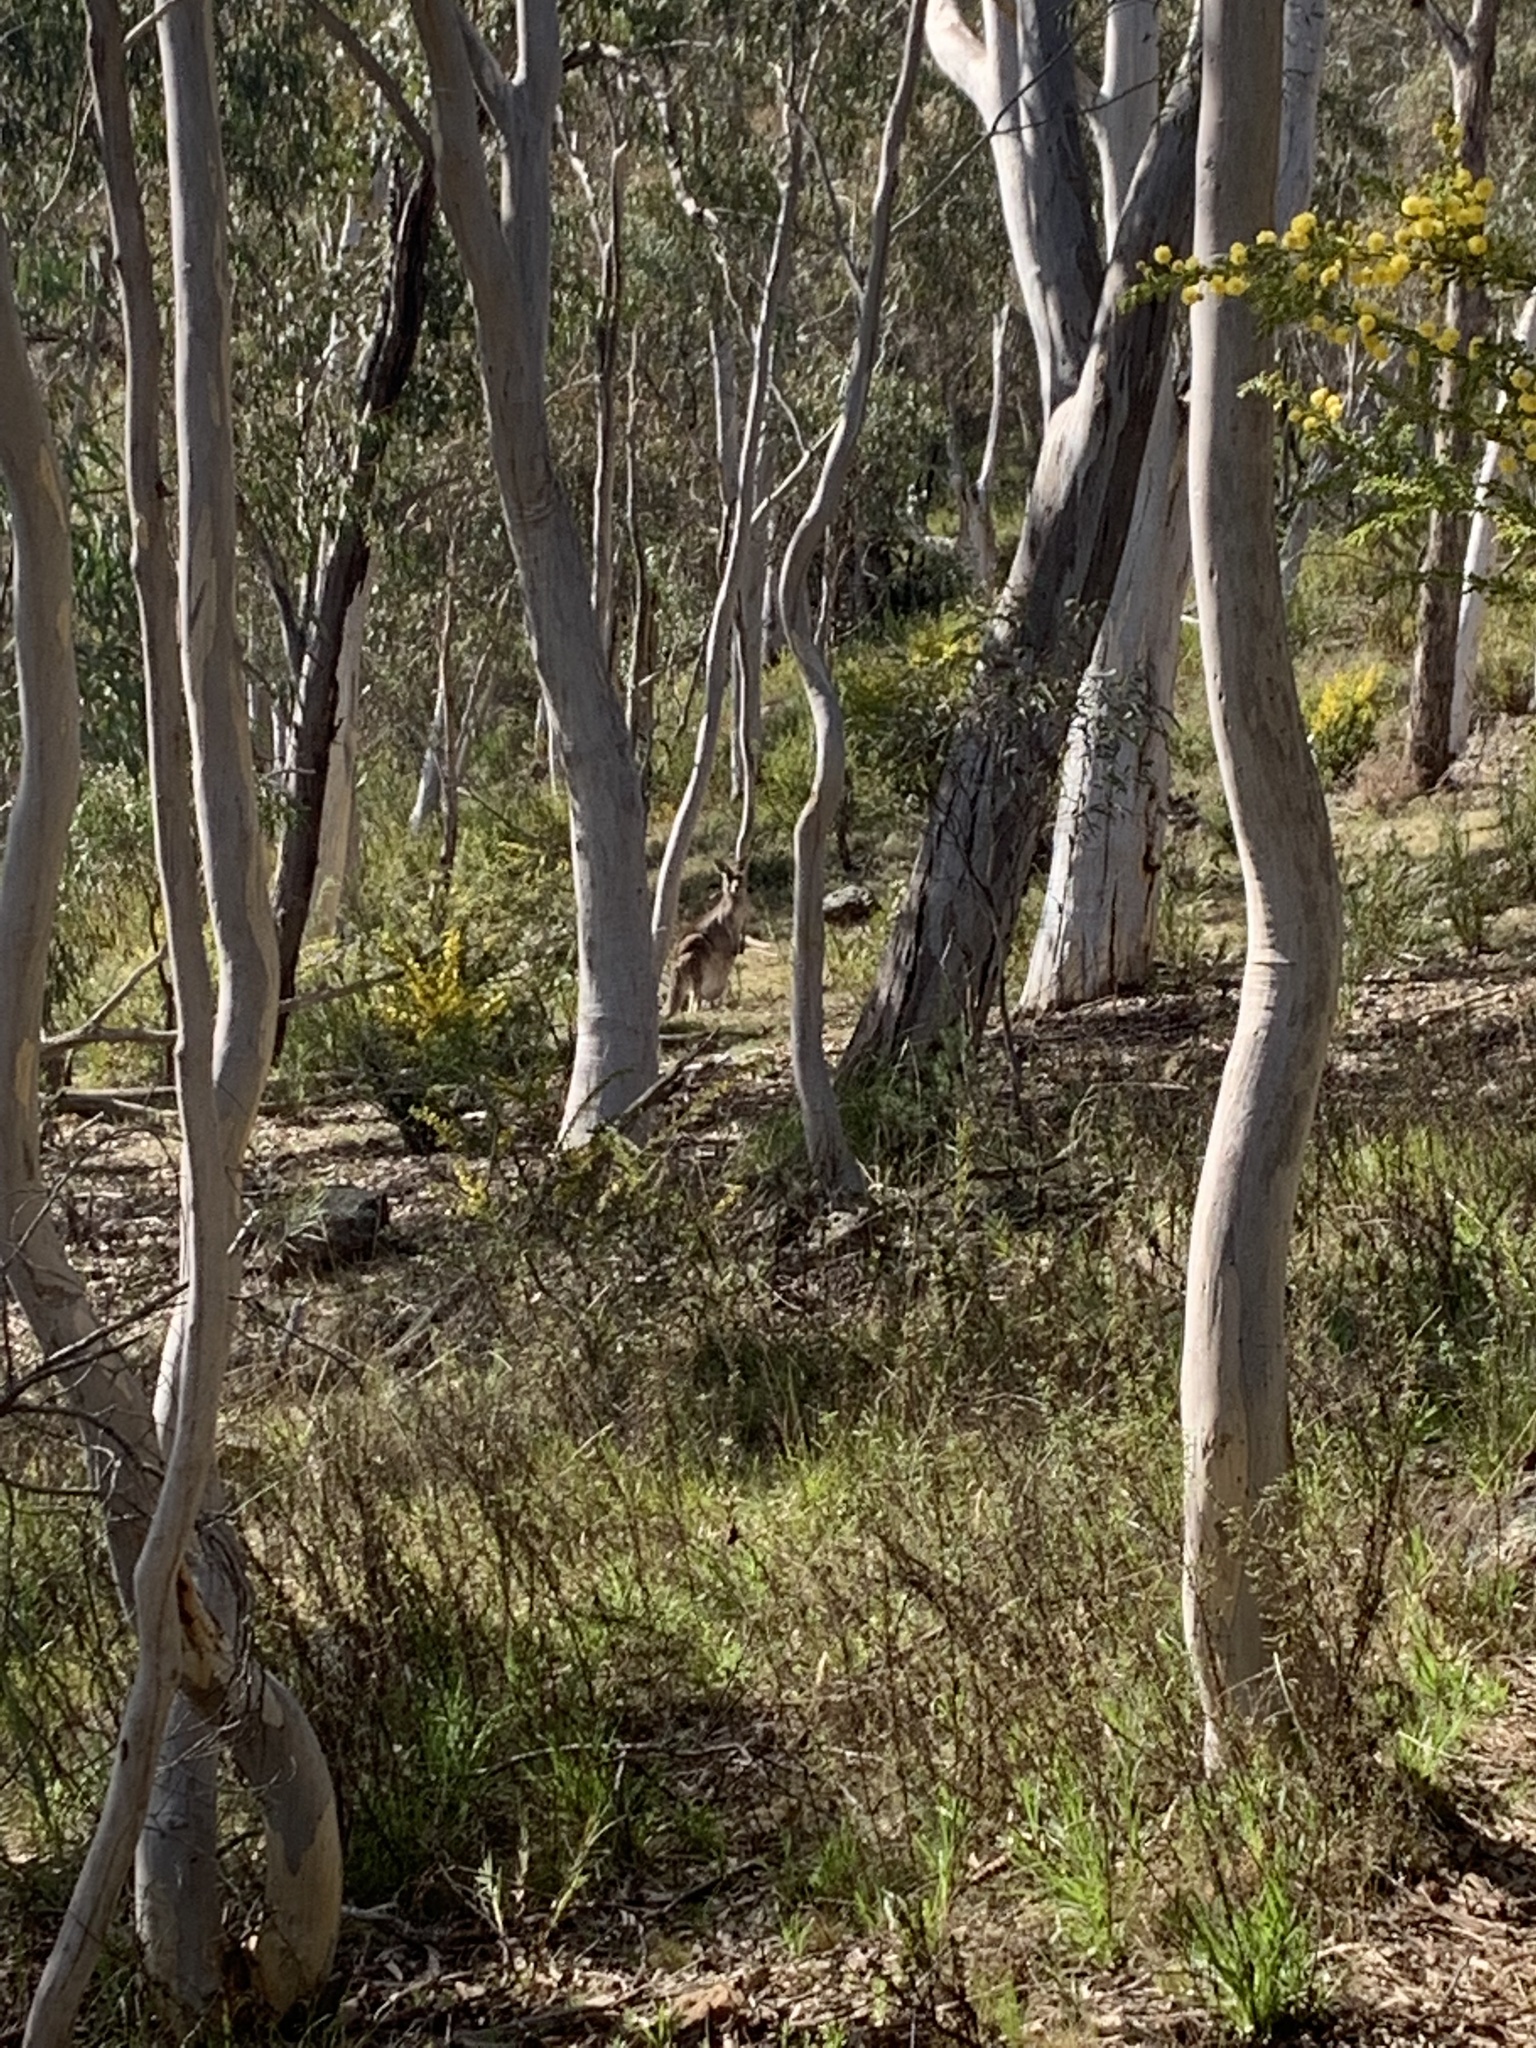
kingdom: Animalia
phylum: Chordata
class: Mammalia
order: Diprotodontia
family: Macropodidae
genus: Macropus
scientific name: Macropus giganteus
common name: Eastern grey kangaroo
